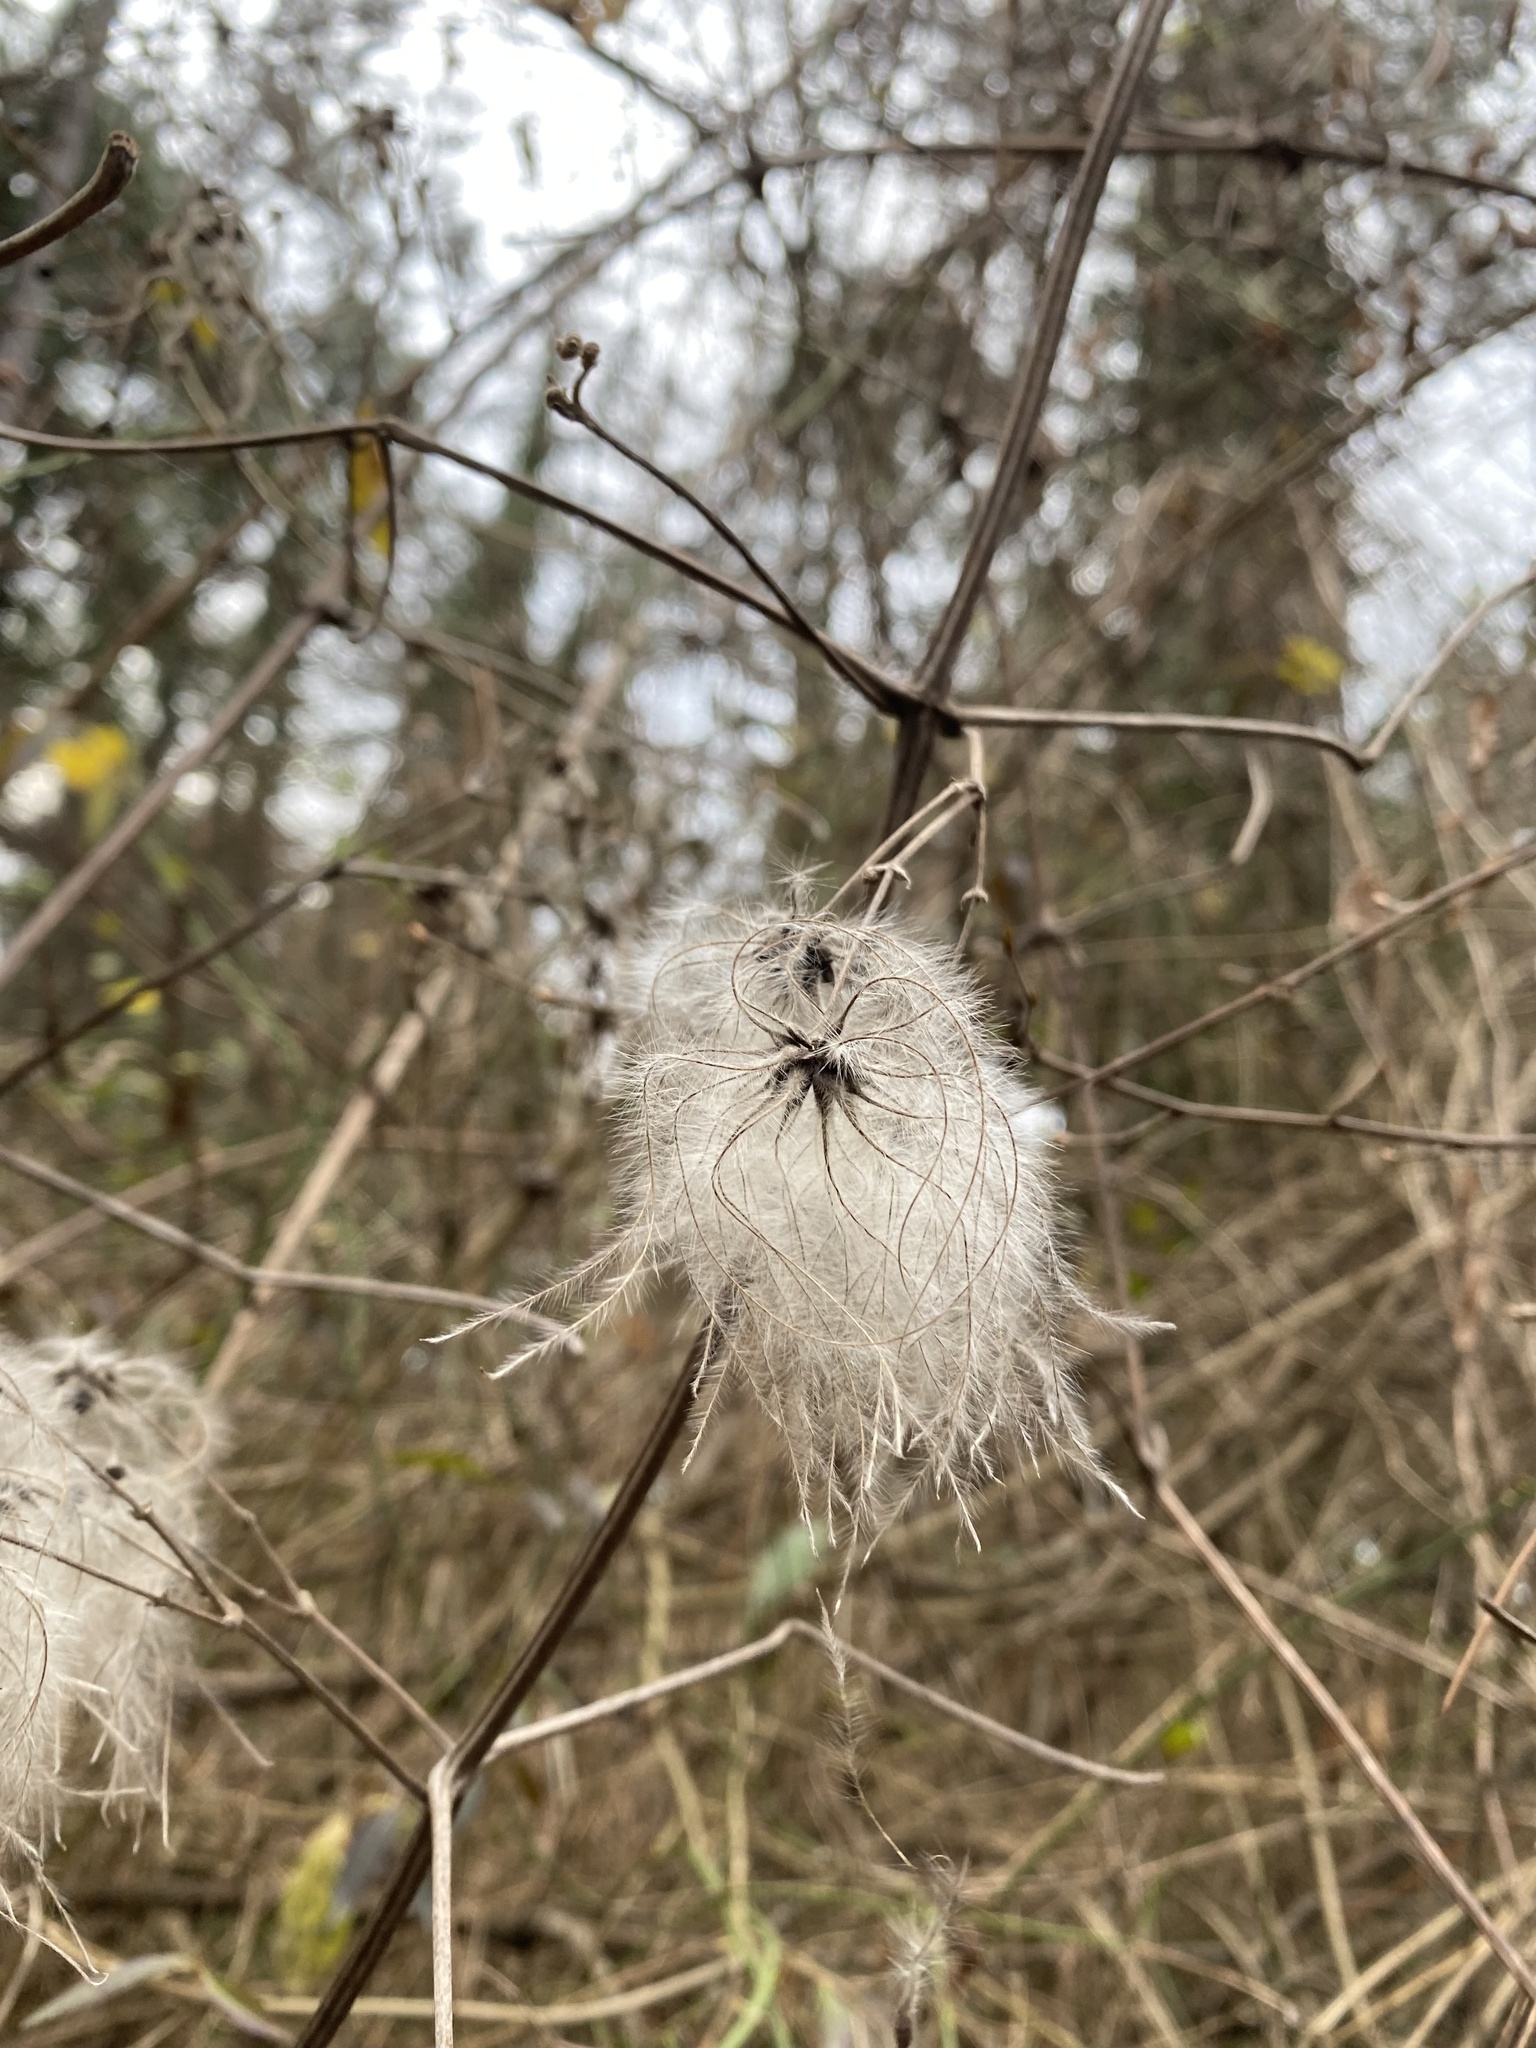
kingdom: Plantae
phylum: Tracheophyta
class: Magnoliopsida
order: Ranunculales
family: Ranunculaceae
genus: Clematis
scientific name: Clematis vitalba
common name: Evergreen clematis
